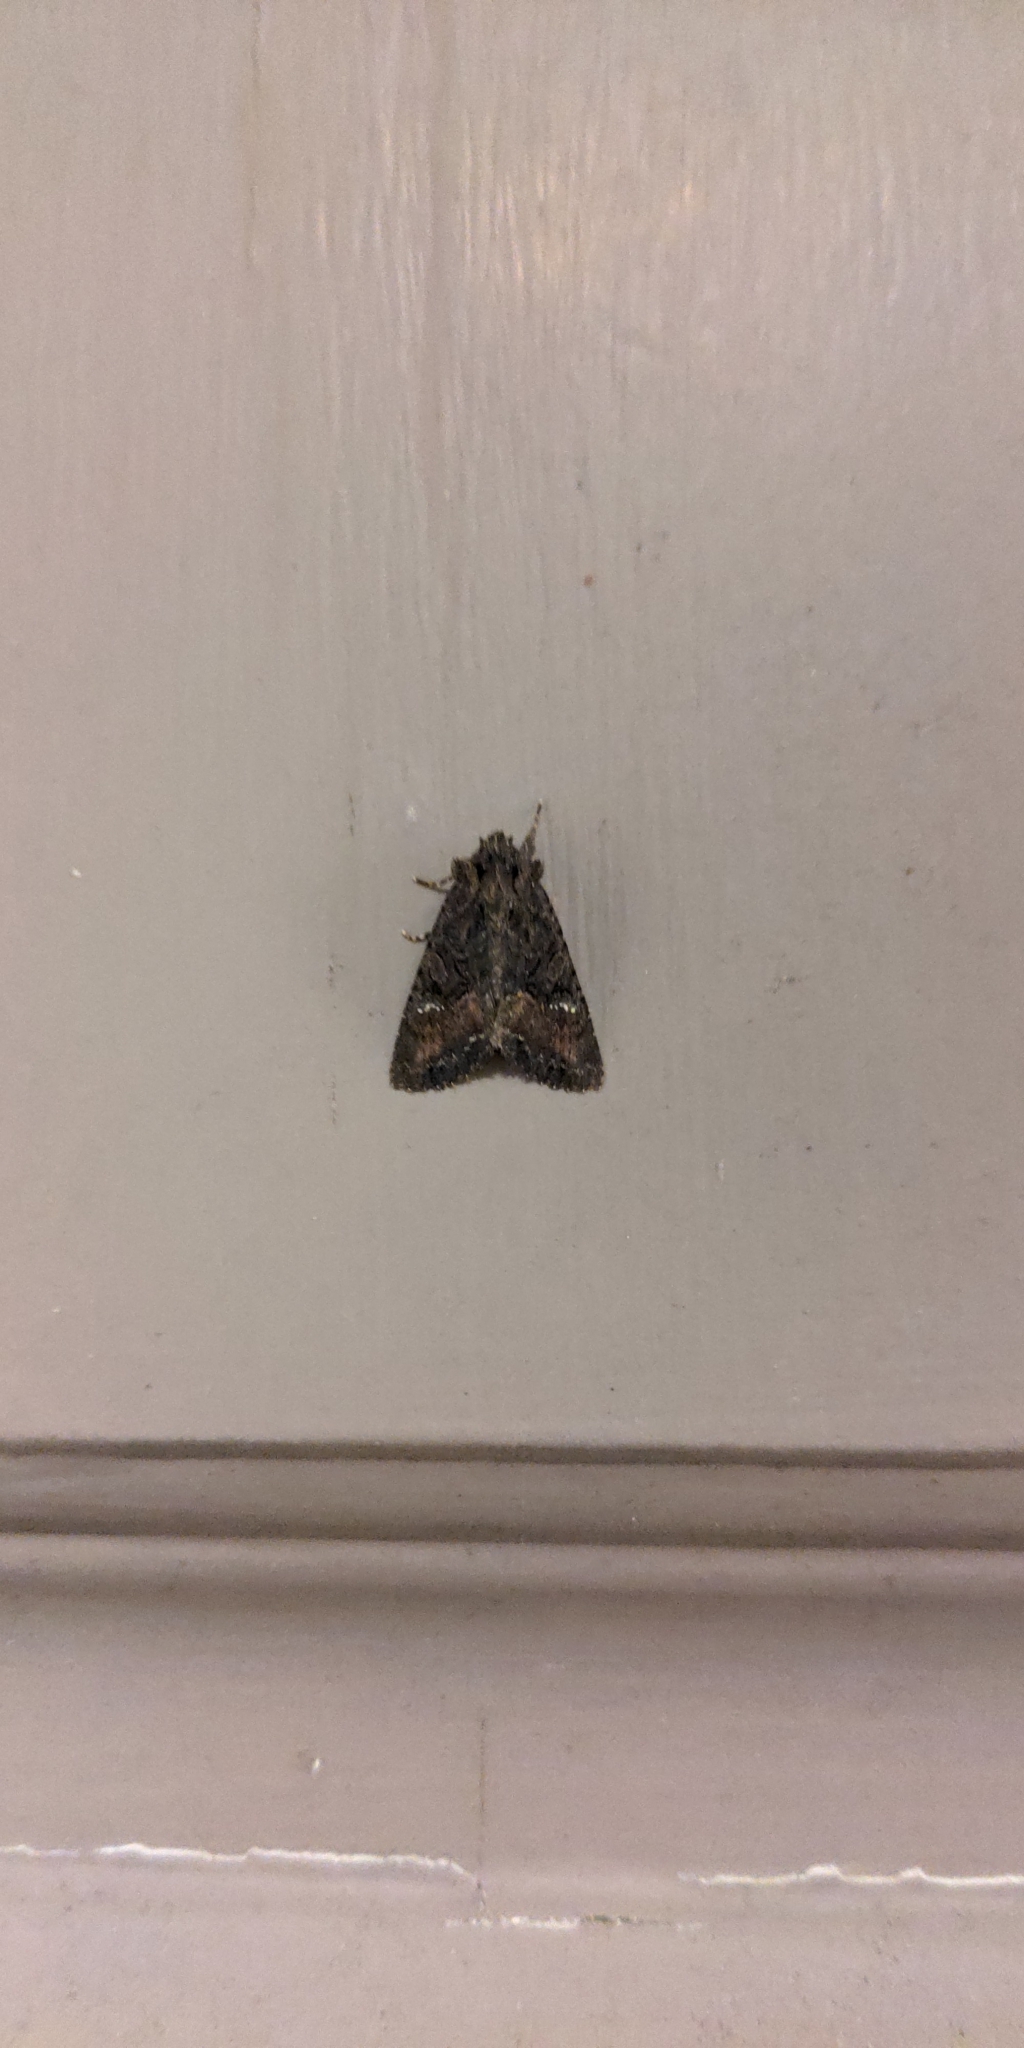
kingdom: Animalia
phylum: Arthropoda
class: Insecta
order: Lepidoptera
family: Noctuidae
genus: Meterana
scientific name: Meterana ochthistis
